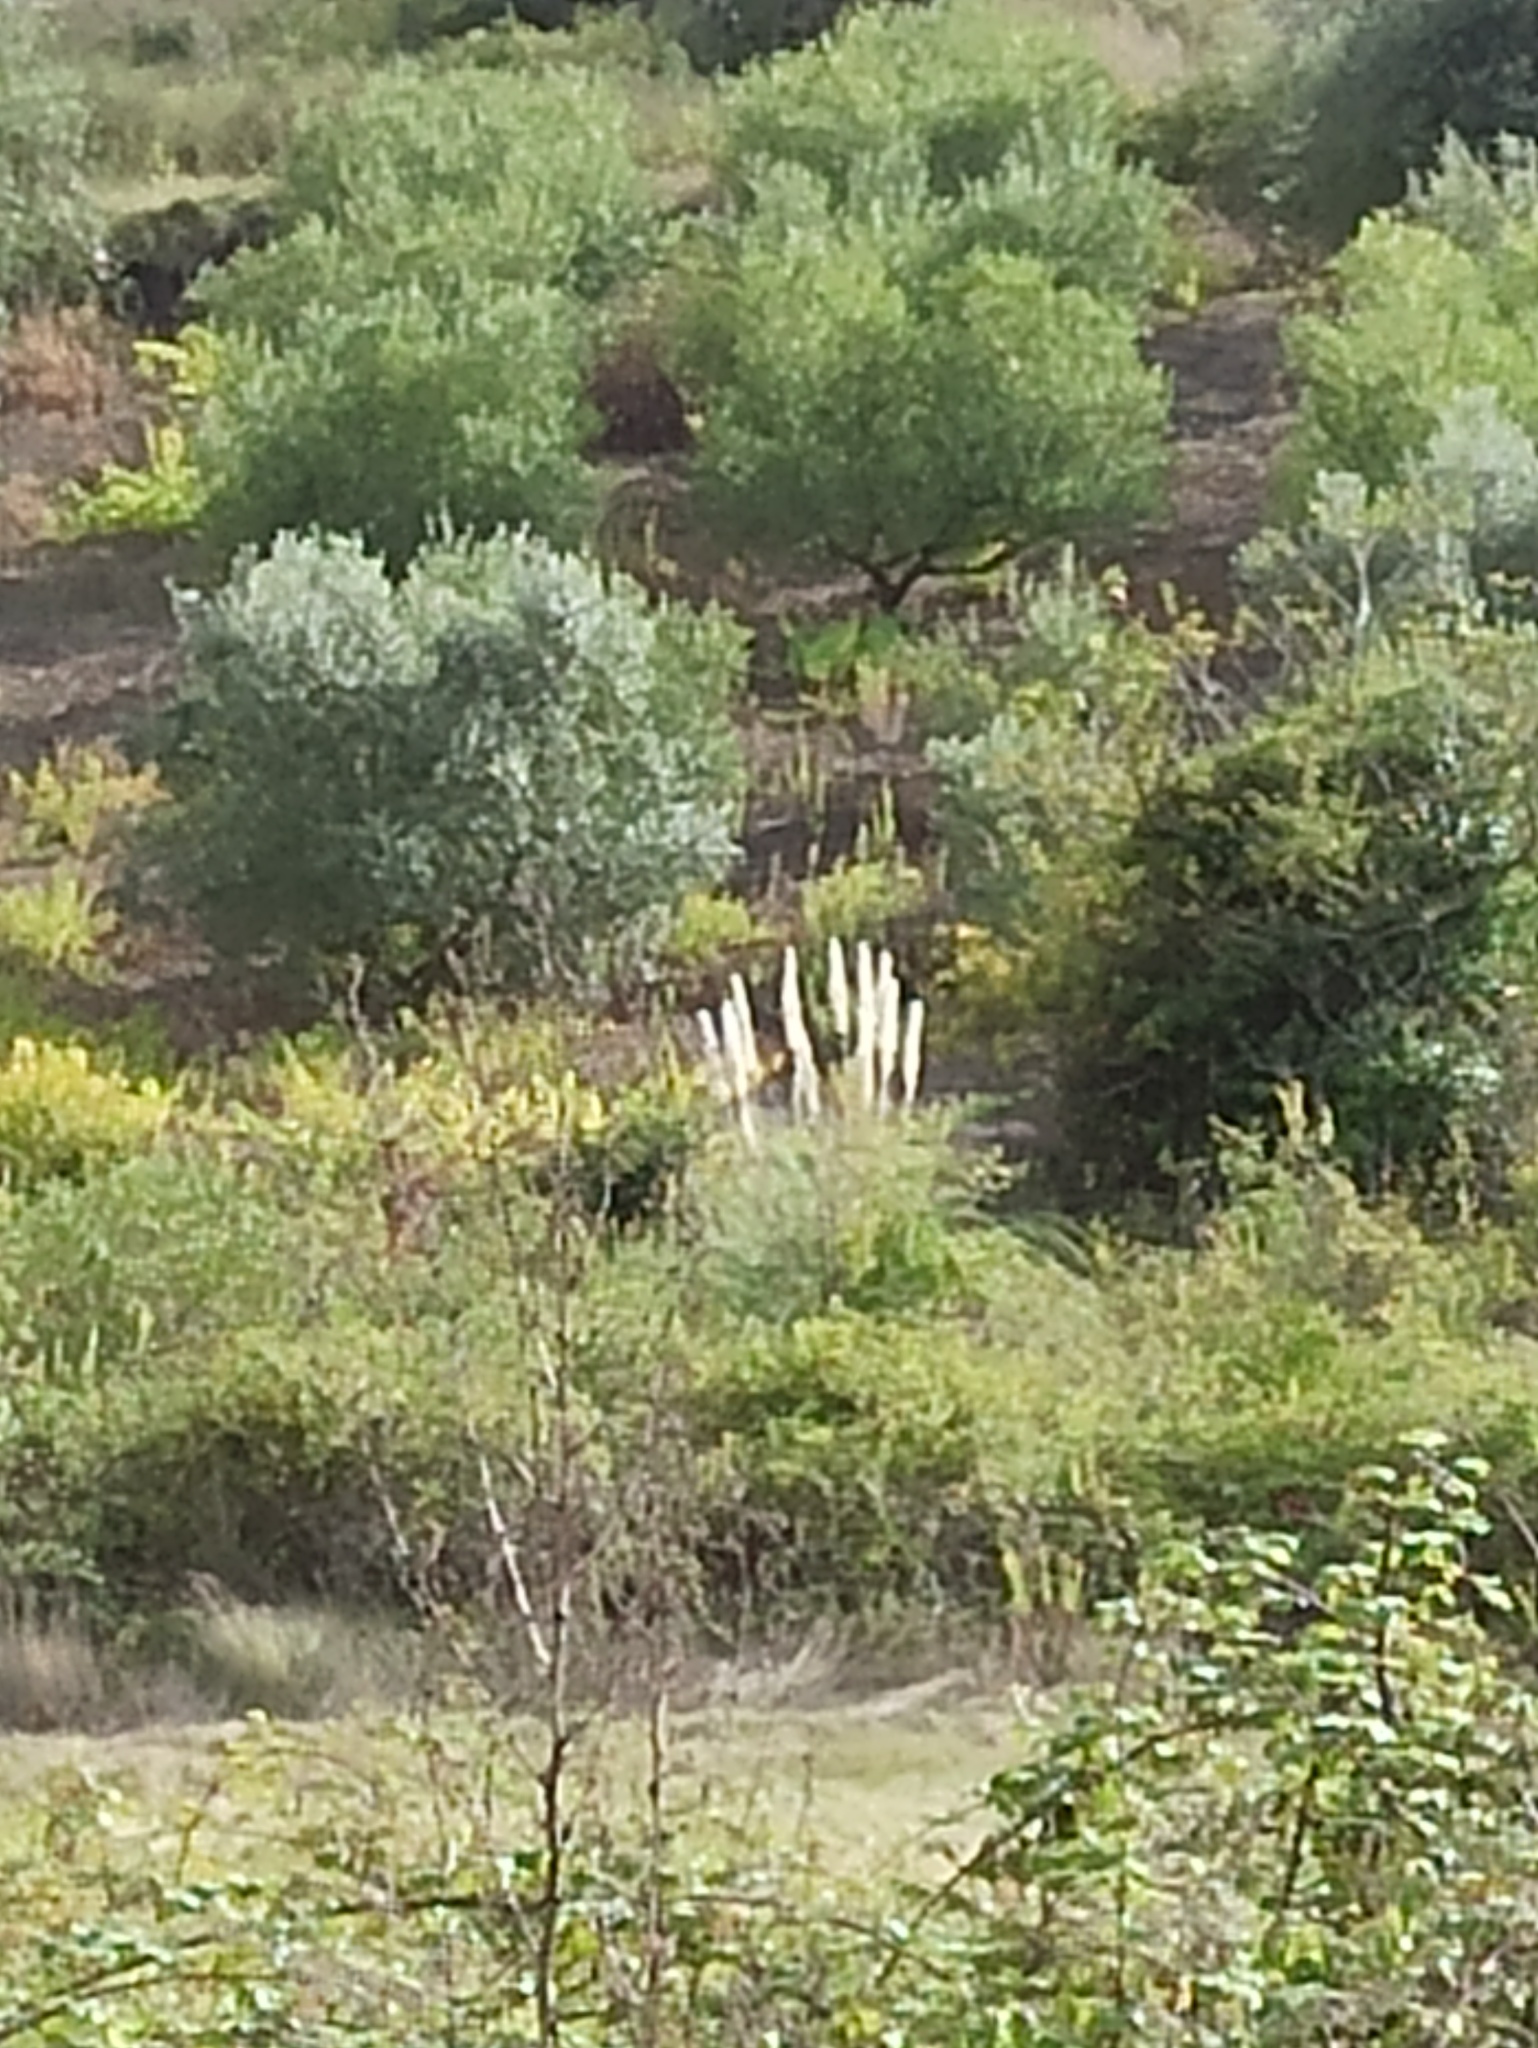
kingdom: Plantae
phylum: Tracheophyta
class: Liliopsida
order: Poales
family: Poaceae
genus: Cortaderia
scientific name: Cortaderia selloana
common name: Uruguayan pampas grass
